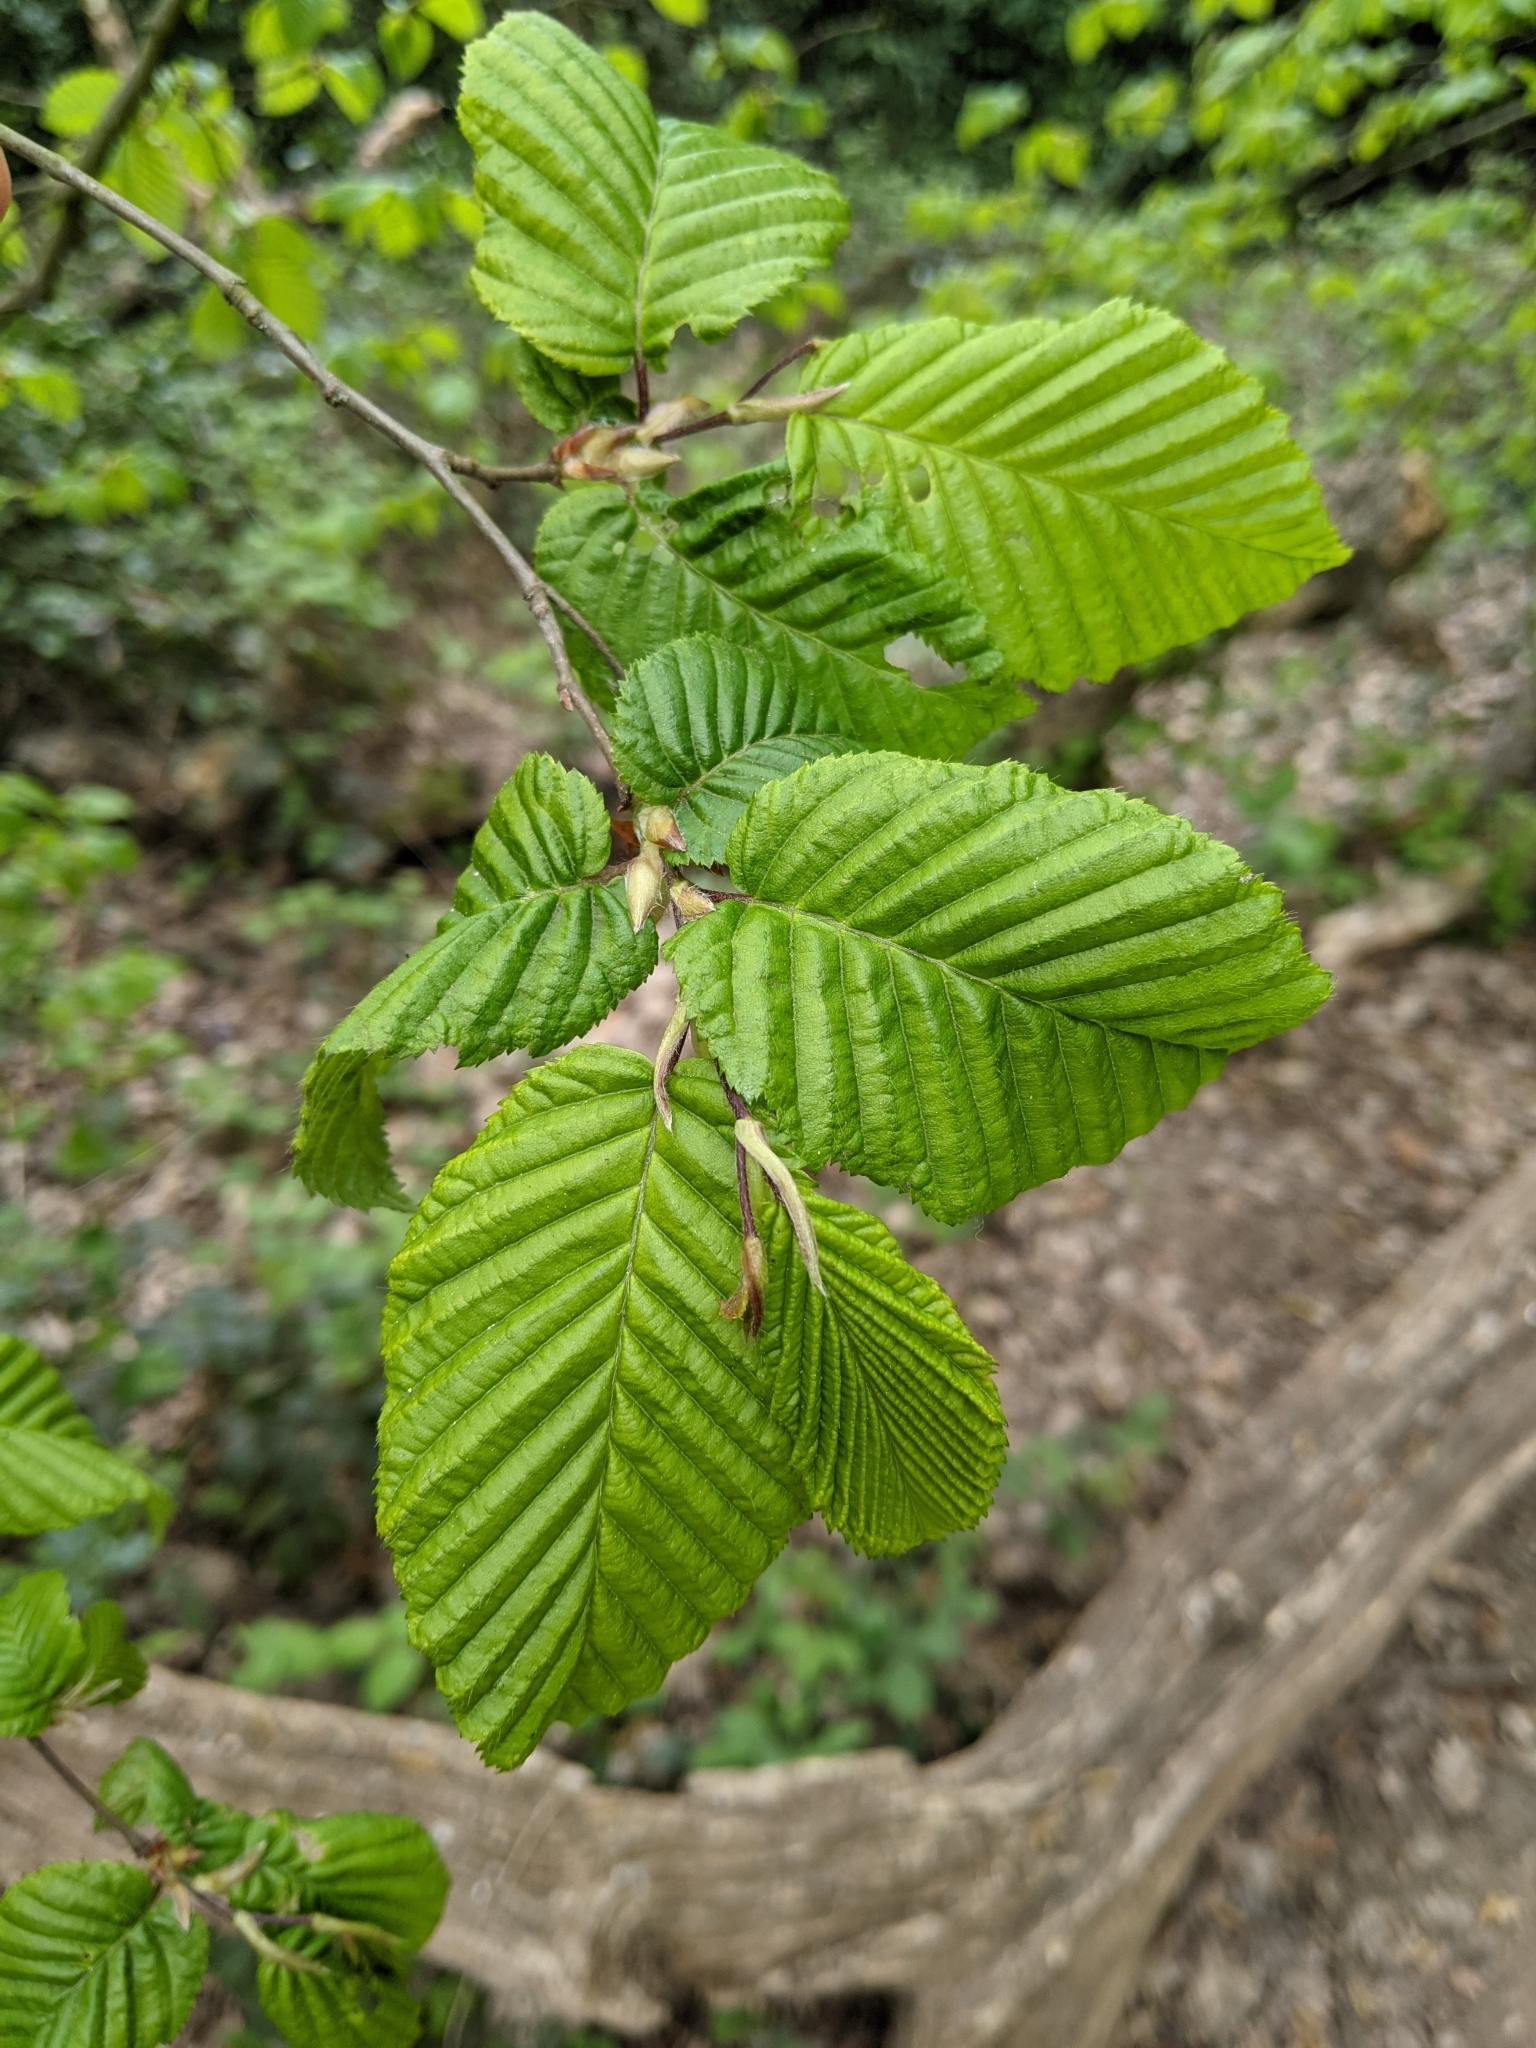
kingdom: Plantae
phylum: Tracheophyta
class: Magnoliopsida
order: Fagales
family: Betulaceae
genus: Carpinus
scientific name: Carpinus betulus
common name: Hornbeam
